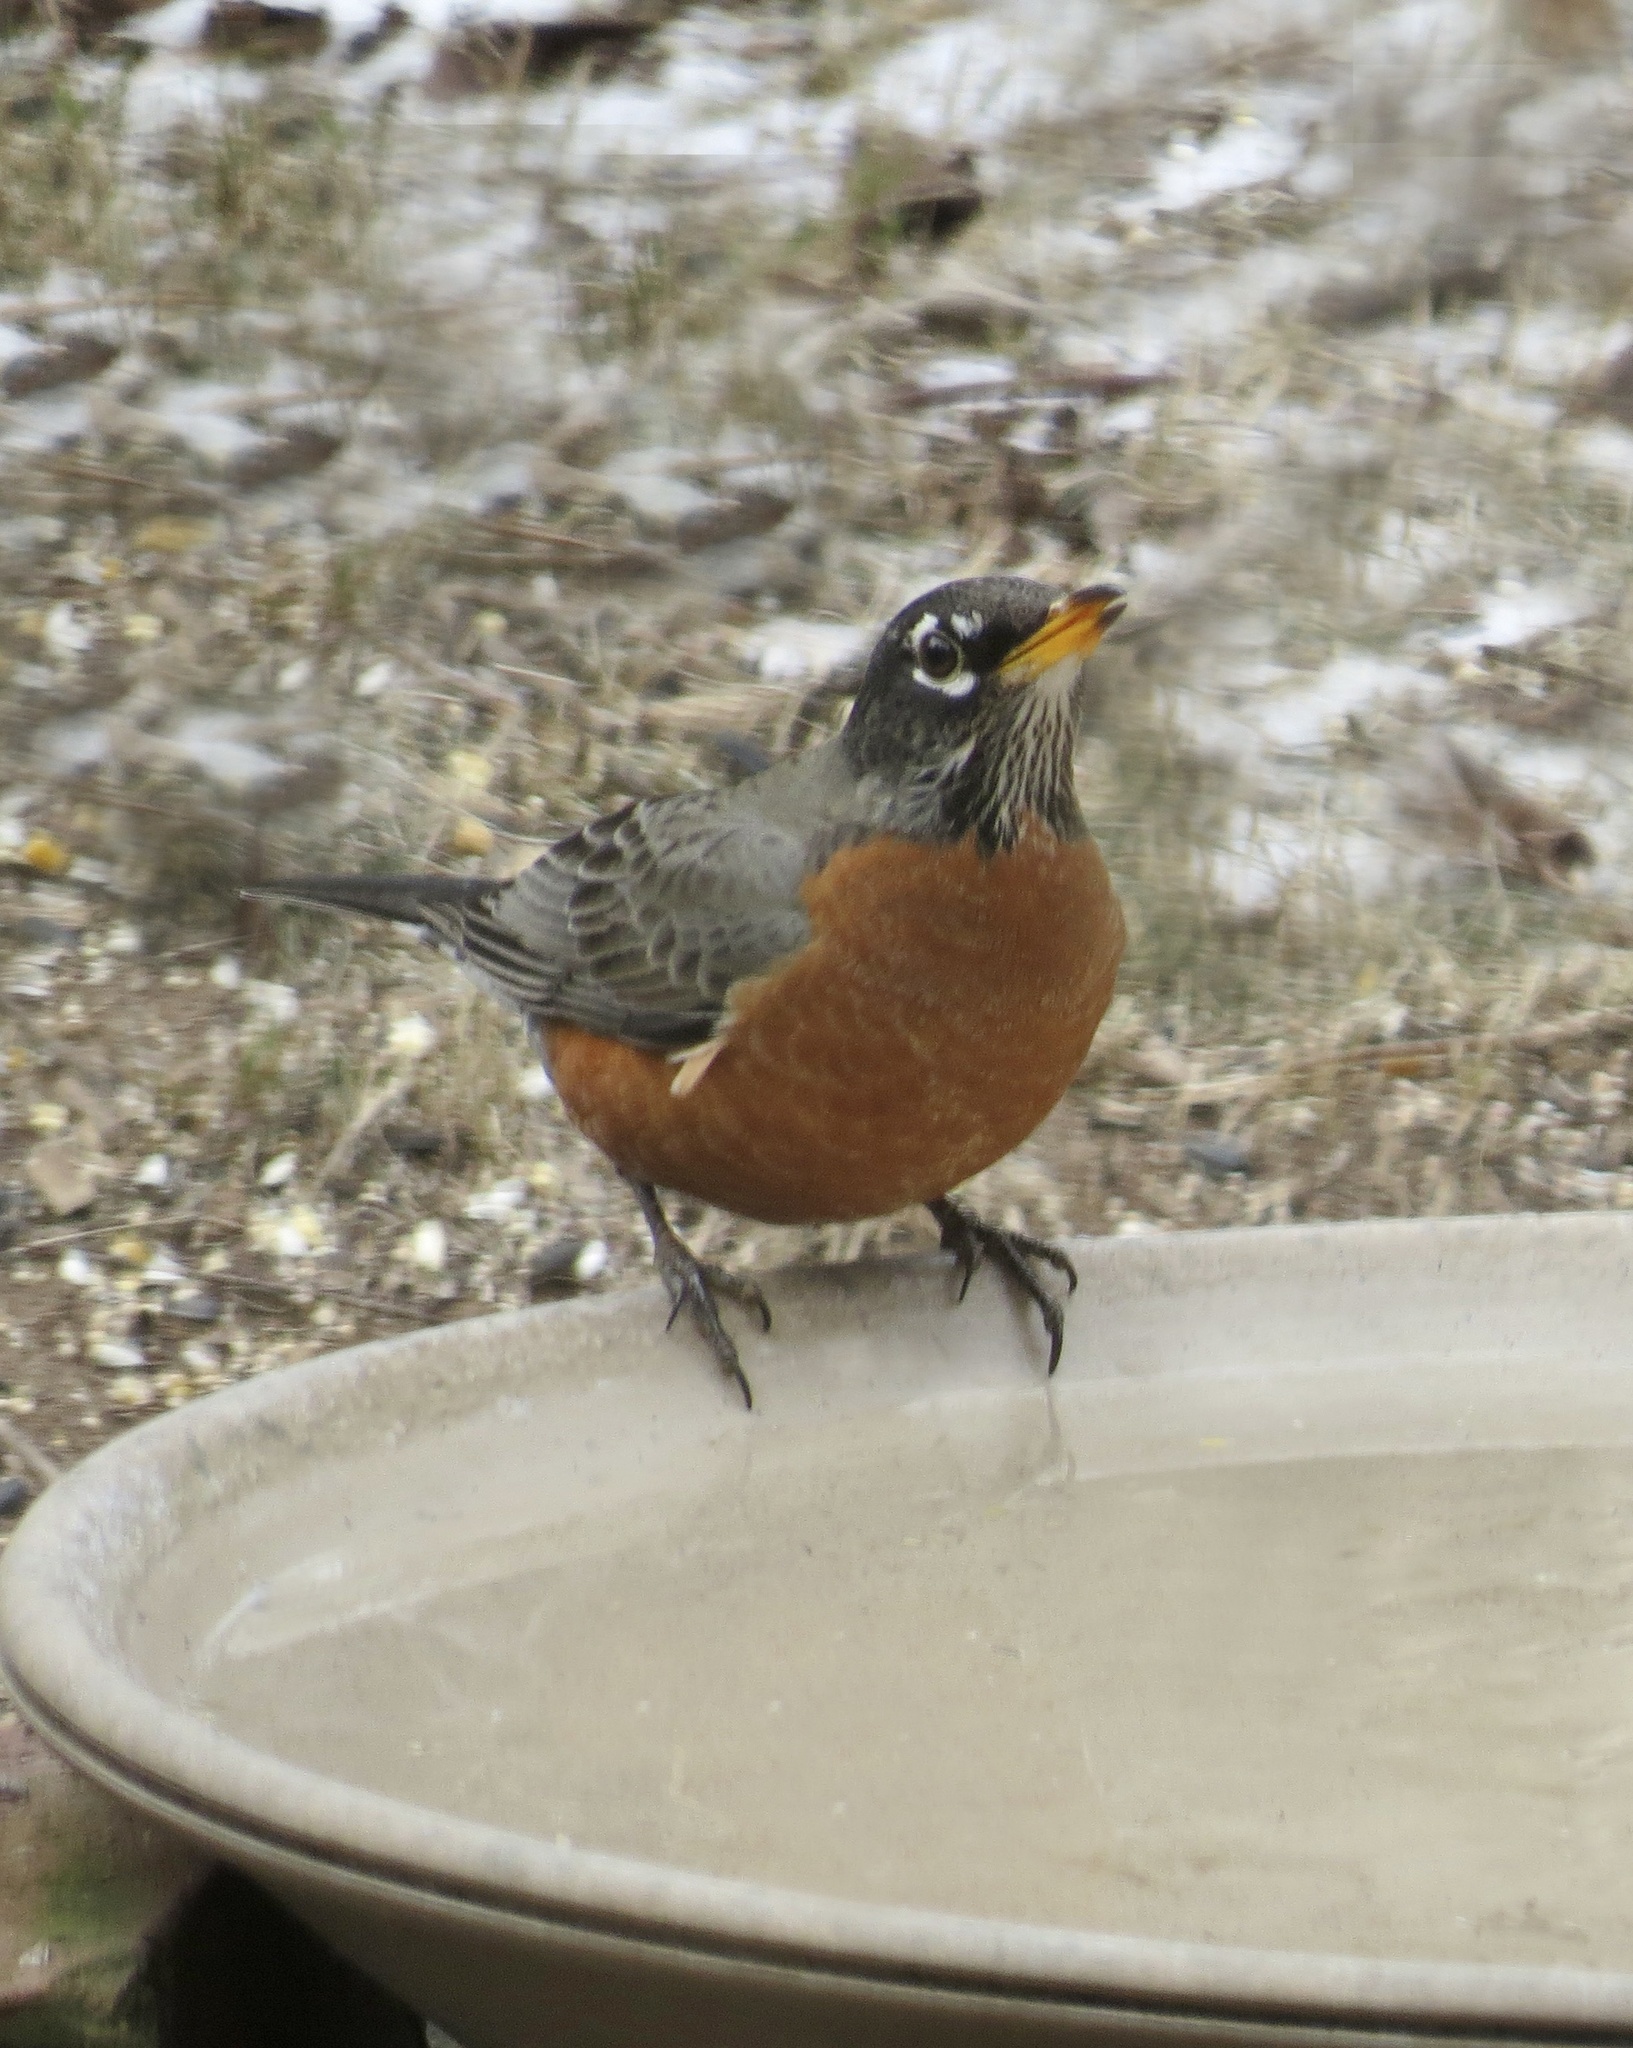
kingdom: Animalia
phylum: Chordata
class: Aves
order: Passeriformes
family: Turdidae
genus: Turdus
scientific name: Turdus migratorius
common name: American robin
